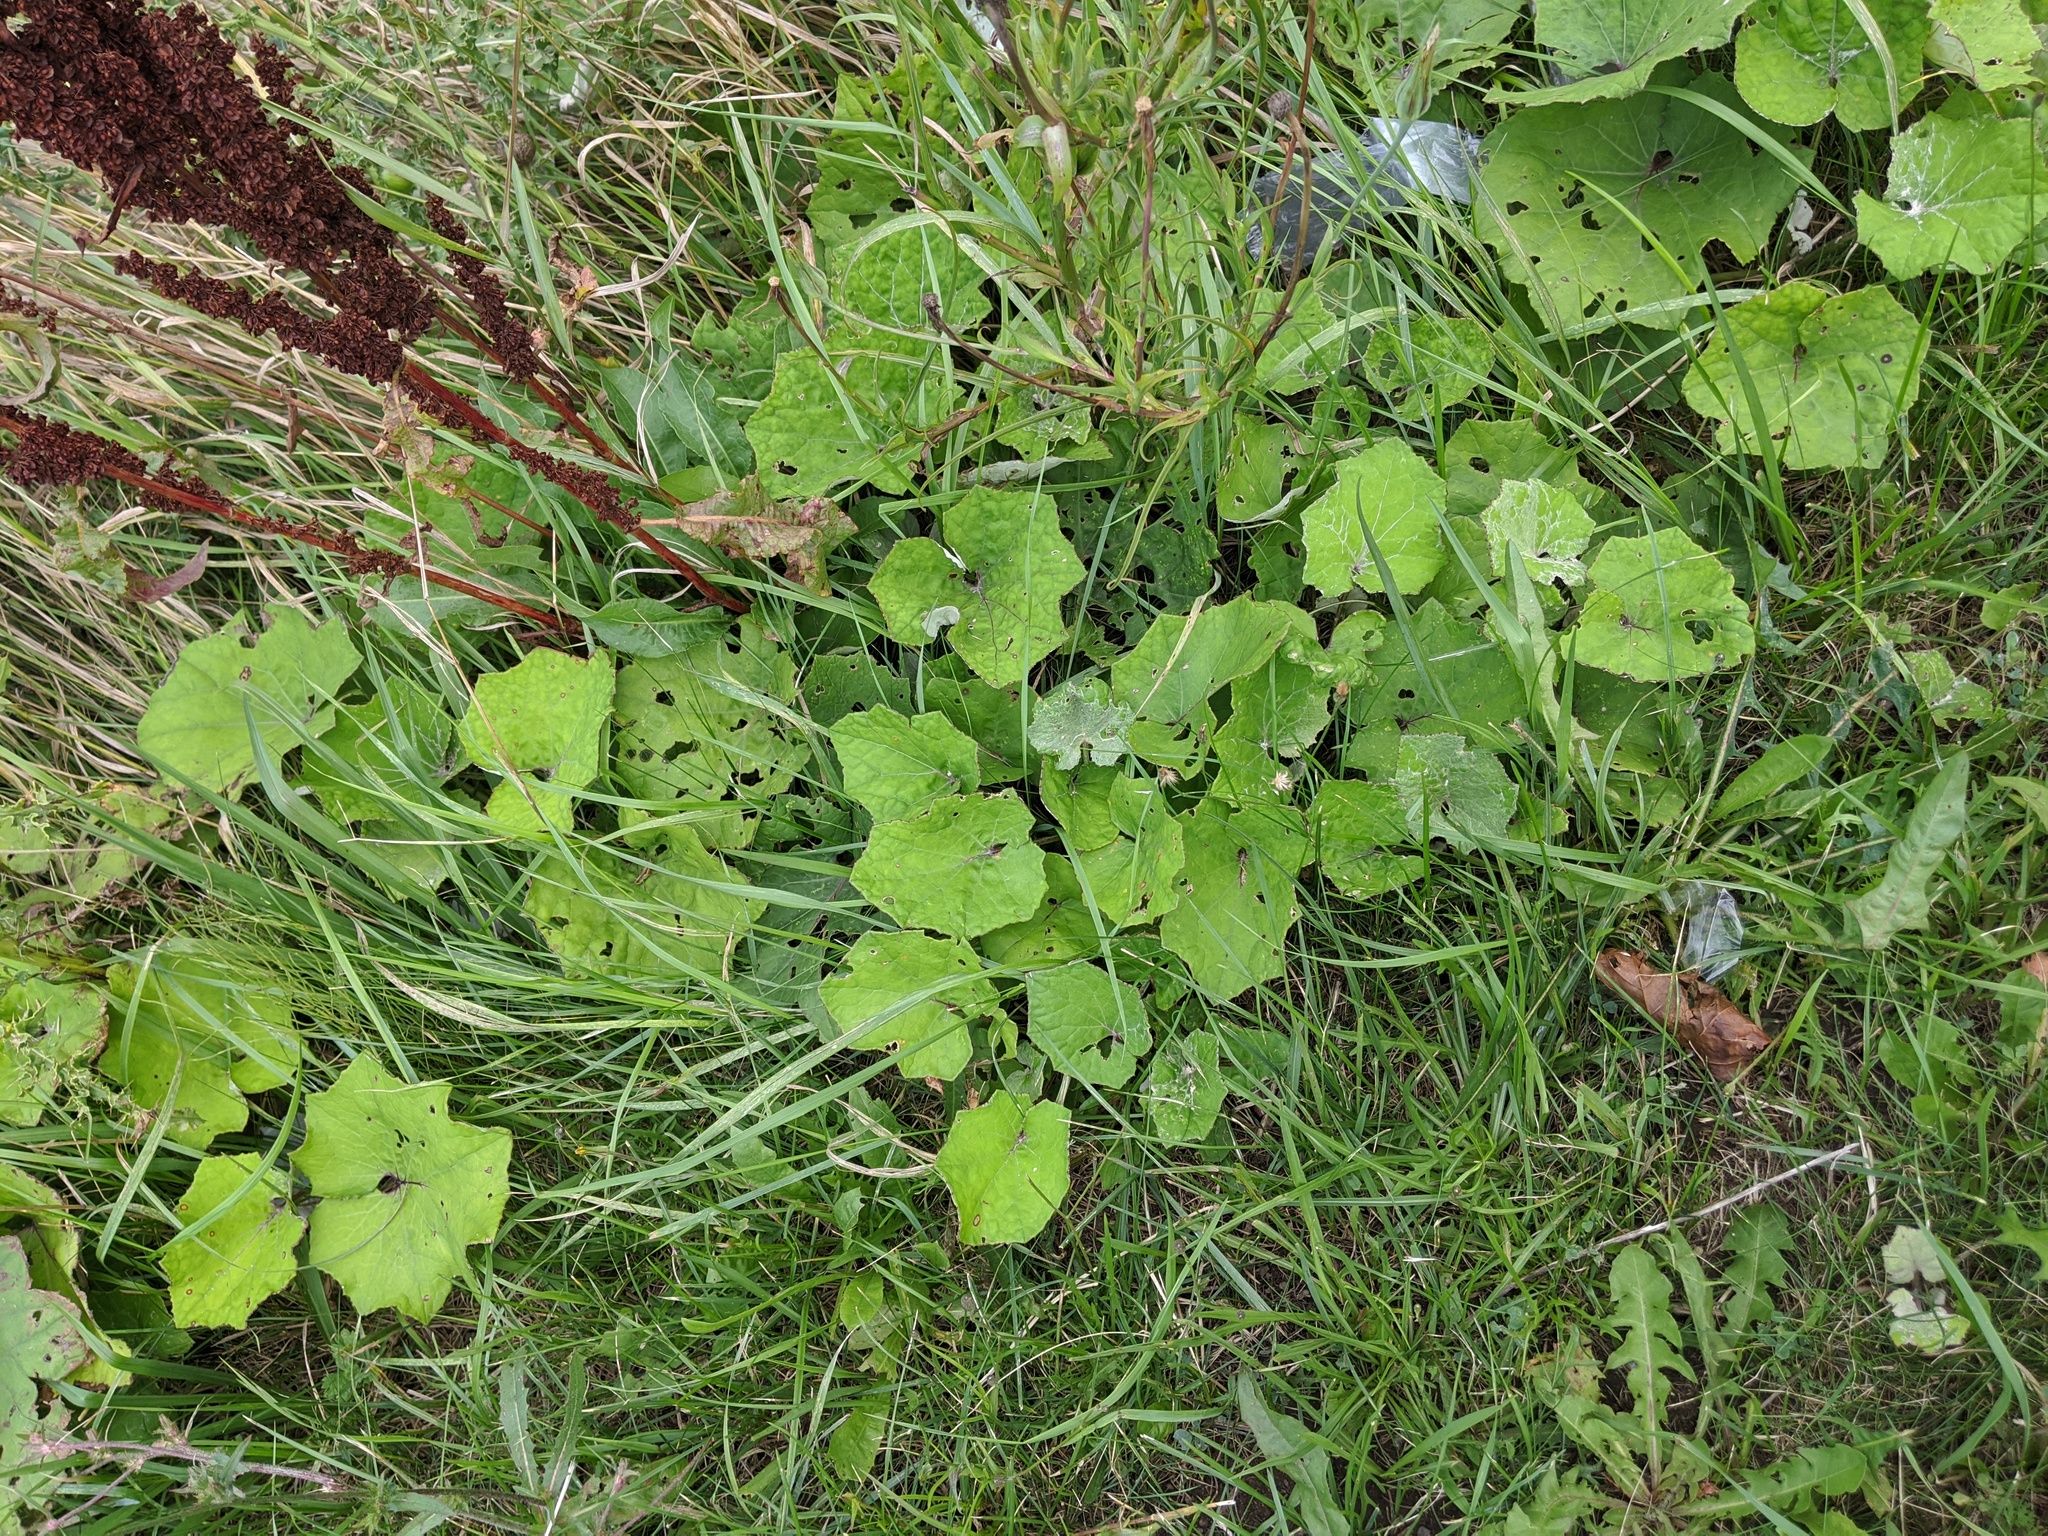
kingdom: Plantae
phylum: Tracheophyta
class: Magnoliopsida
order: Asterales
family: Asteraceae
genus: Tussilago
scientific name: Tussilago farfara
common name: Coltsfoot
